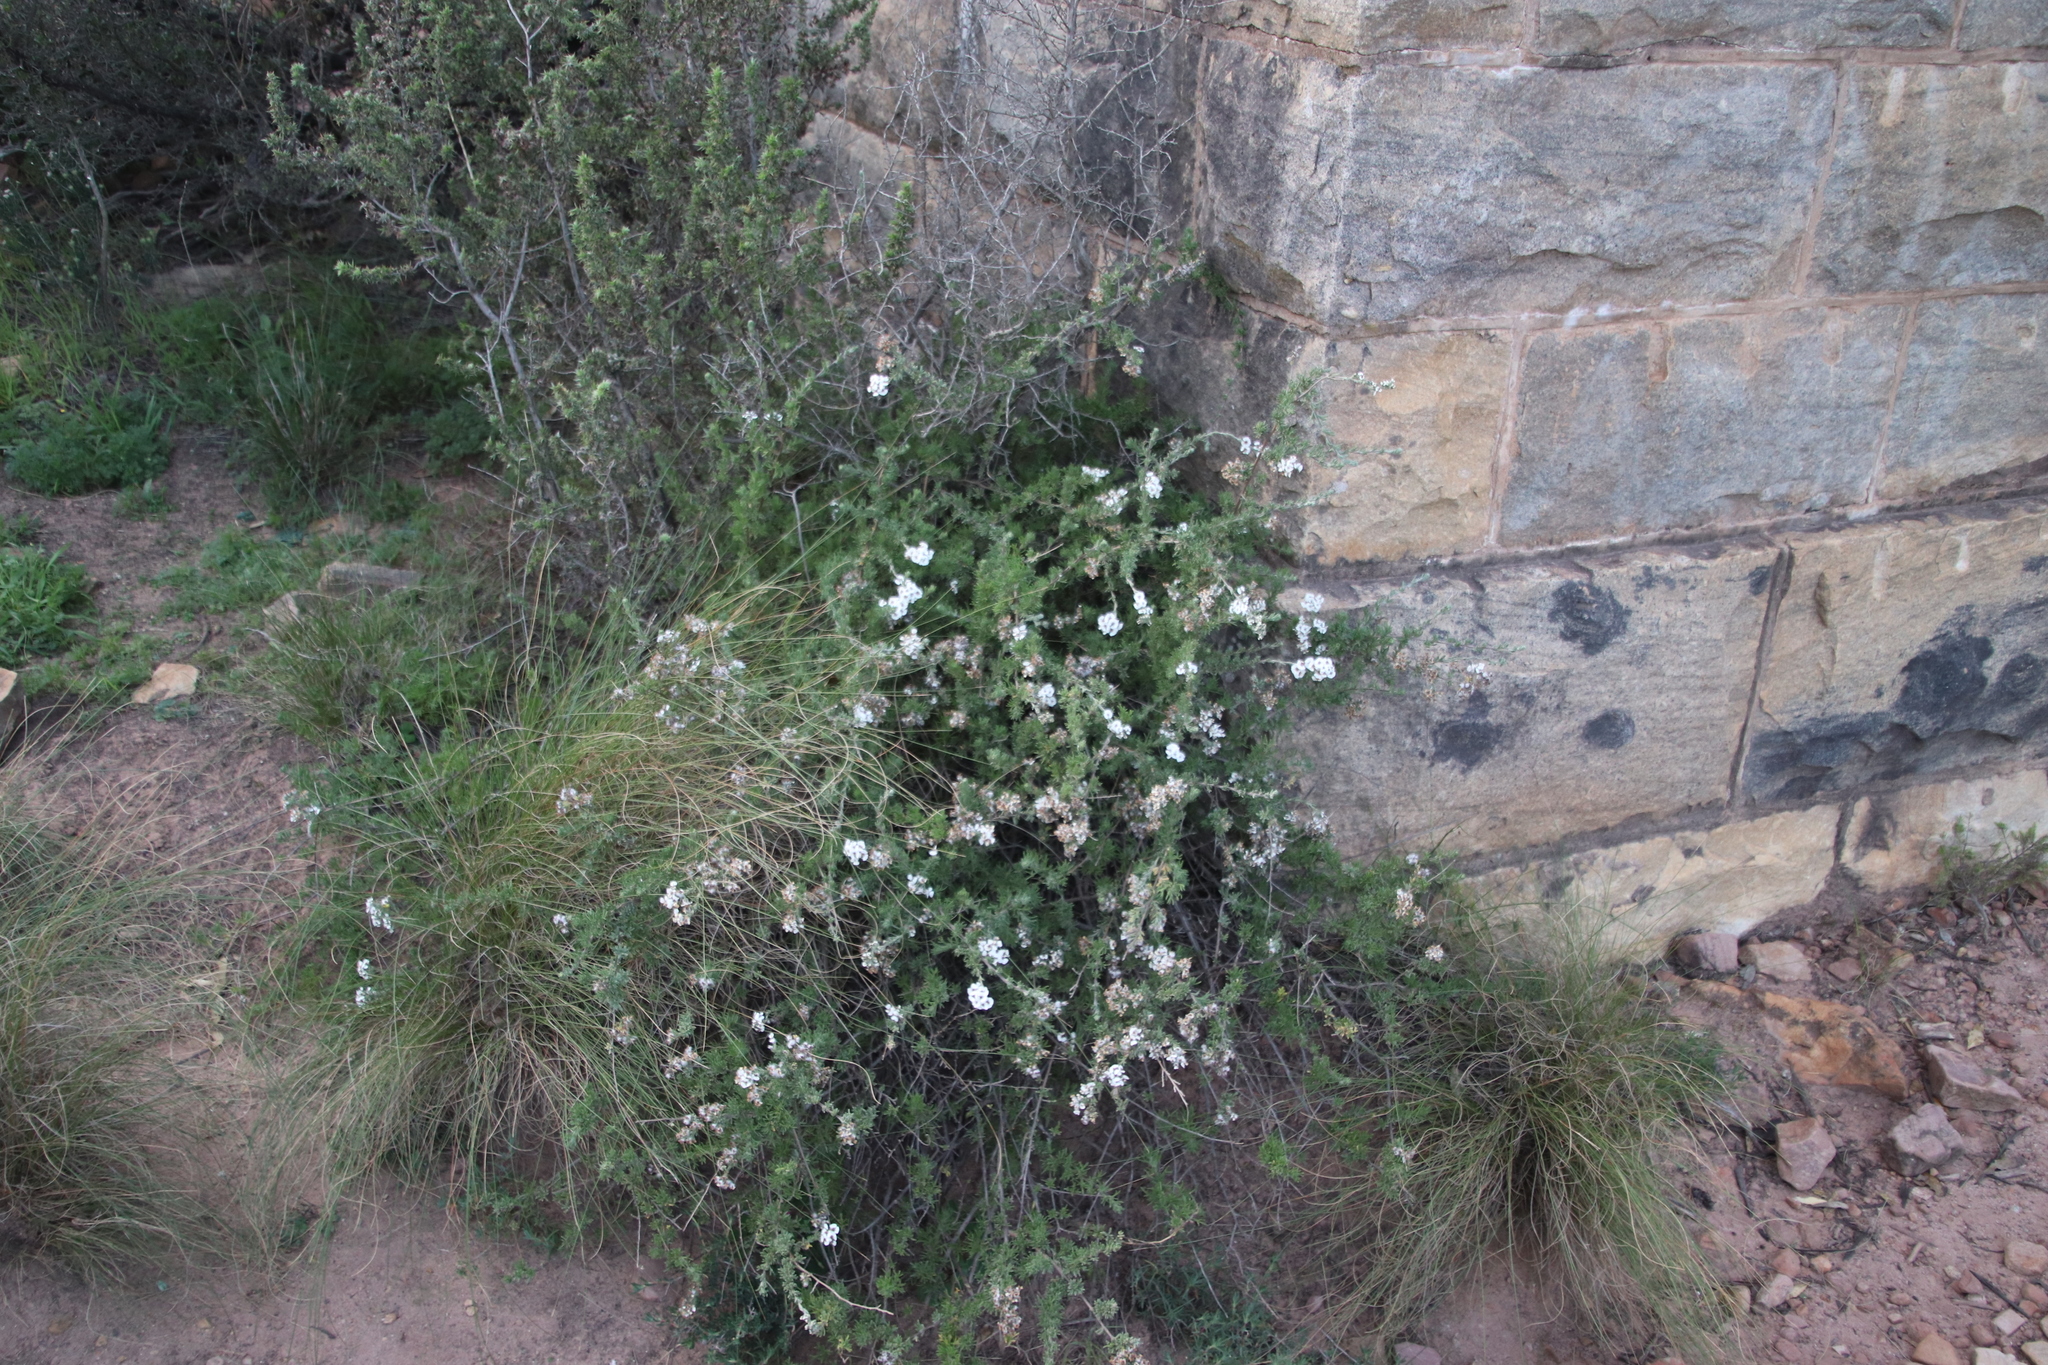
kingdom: Plantae
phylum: Tracheophyta
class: Magnoliopsida
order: Asterales
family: Asteraceae
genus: Eriocephalus
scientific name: Eriocephalus africanus
